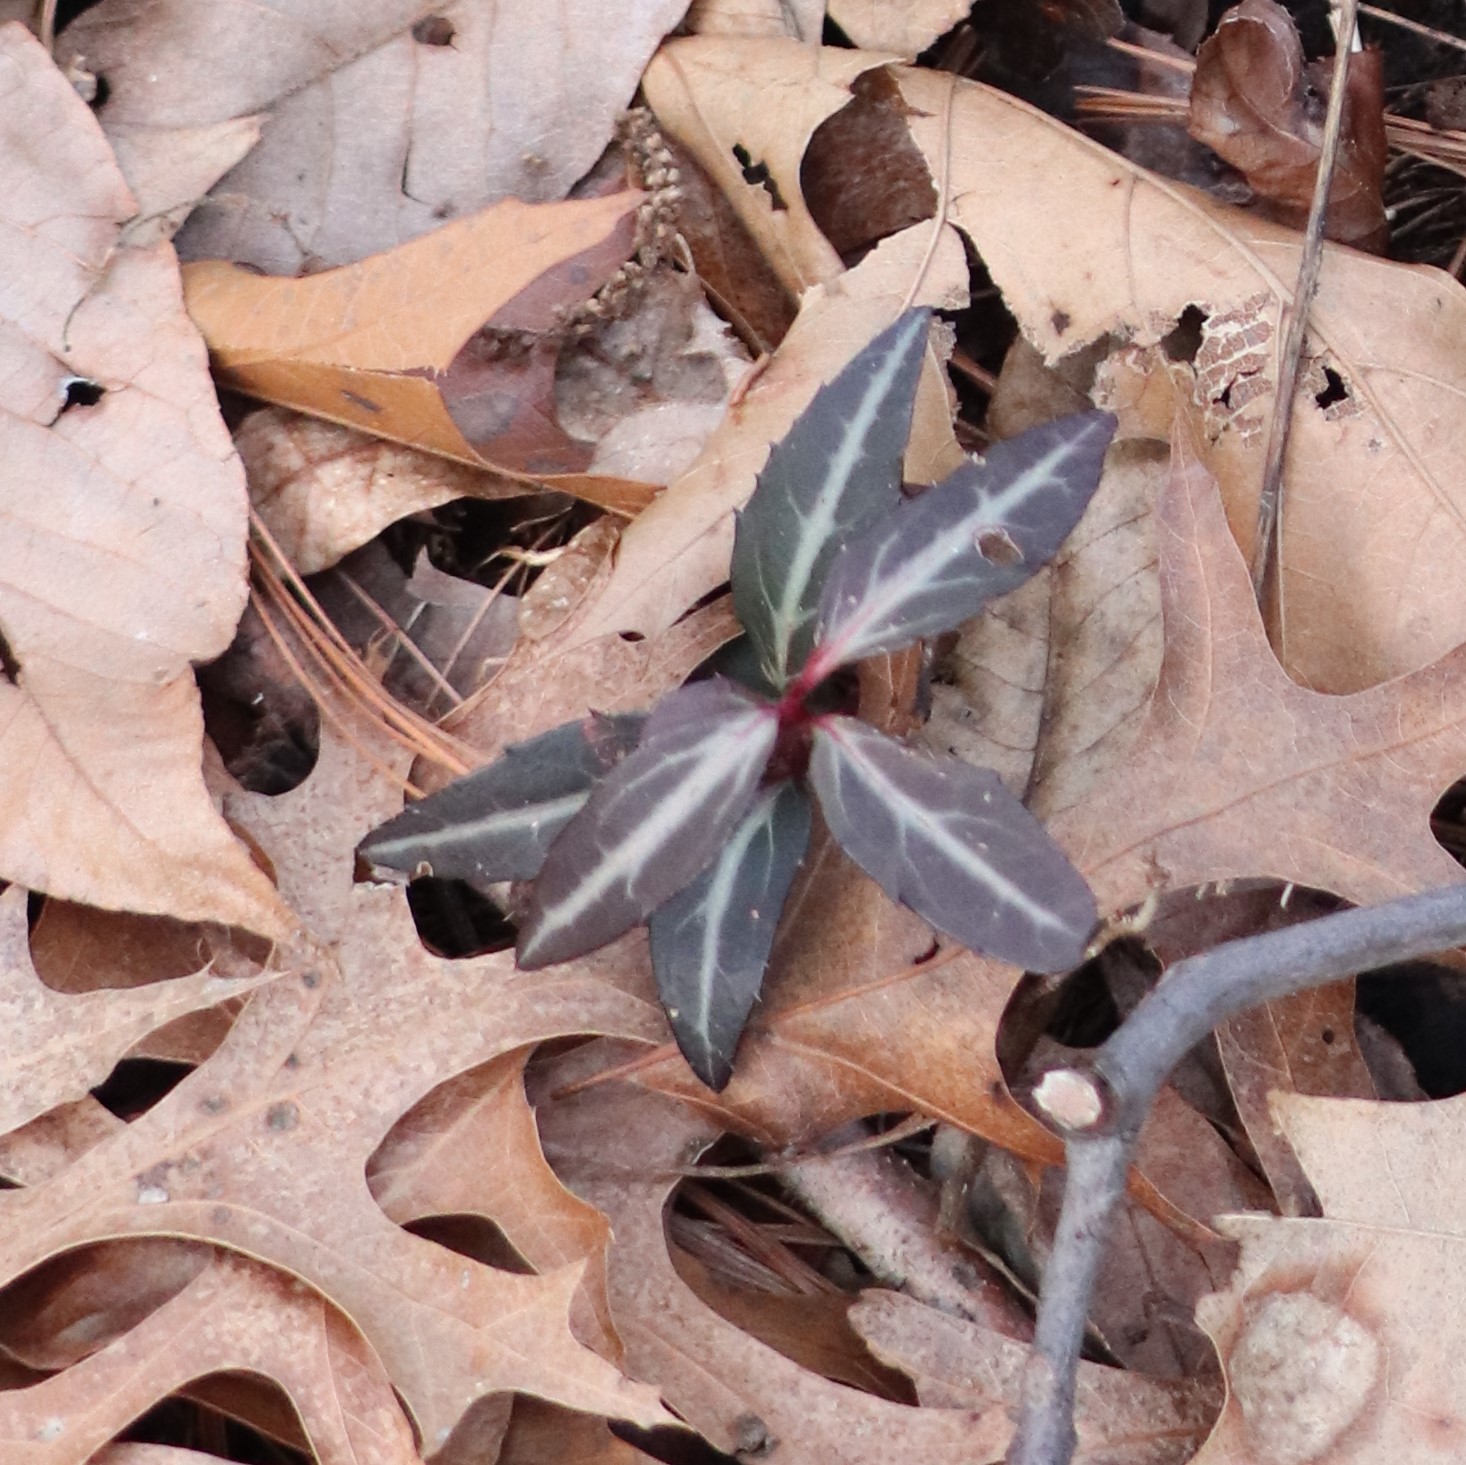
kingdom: Plantae
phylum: Tracheophyta
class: Magnoliopsida
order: Ericales
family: Ericaceae
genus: Chimaphila
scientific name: Chimaphila maculata
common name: Spotted pipsissewa
